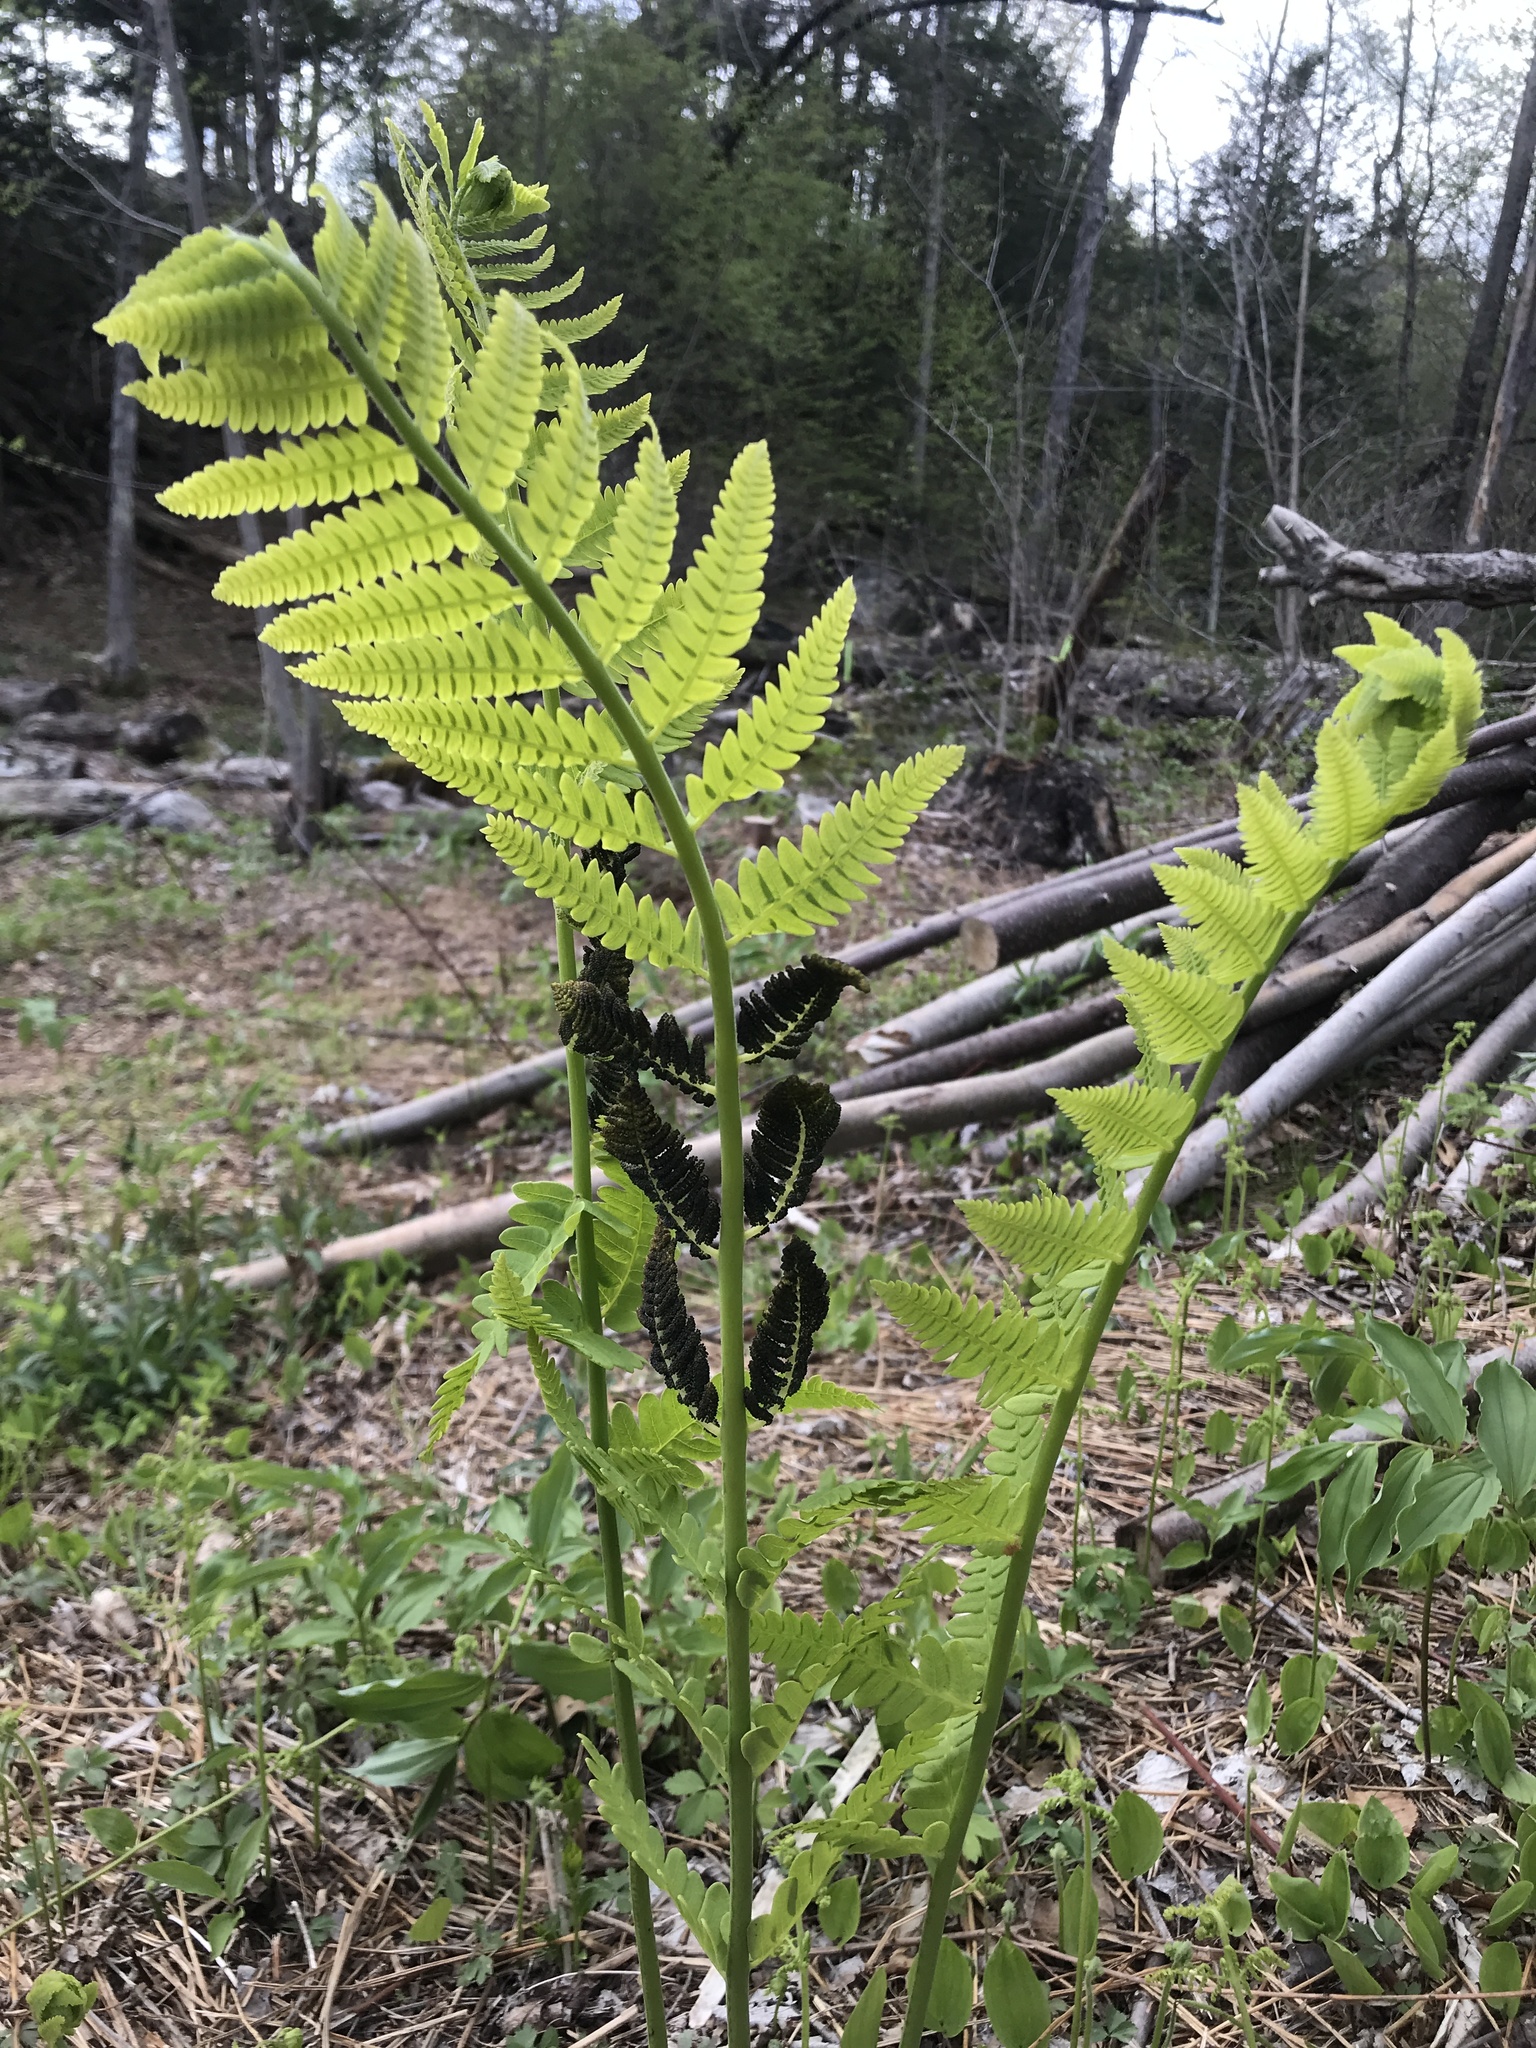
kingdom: Plantae
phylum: Tracheophyta
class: Polypodiopsida
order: Osmundales
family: Osmundaceae
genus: Claytosmunda
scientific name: Claytosmunda claytoniana
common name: Clayton's fern
